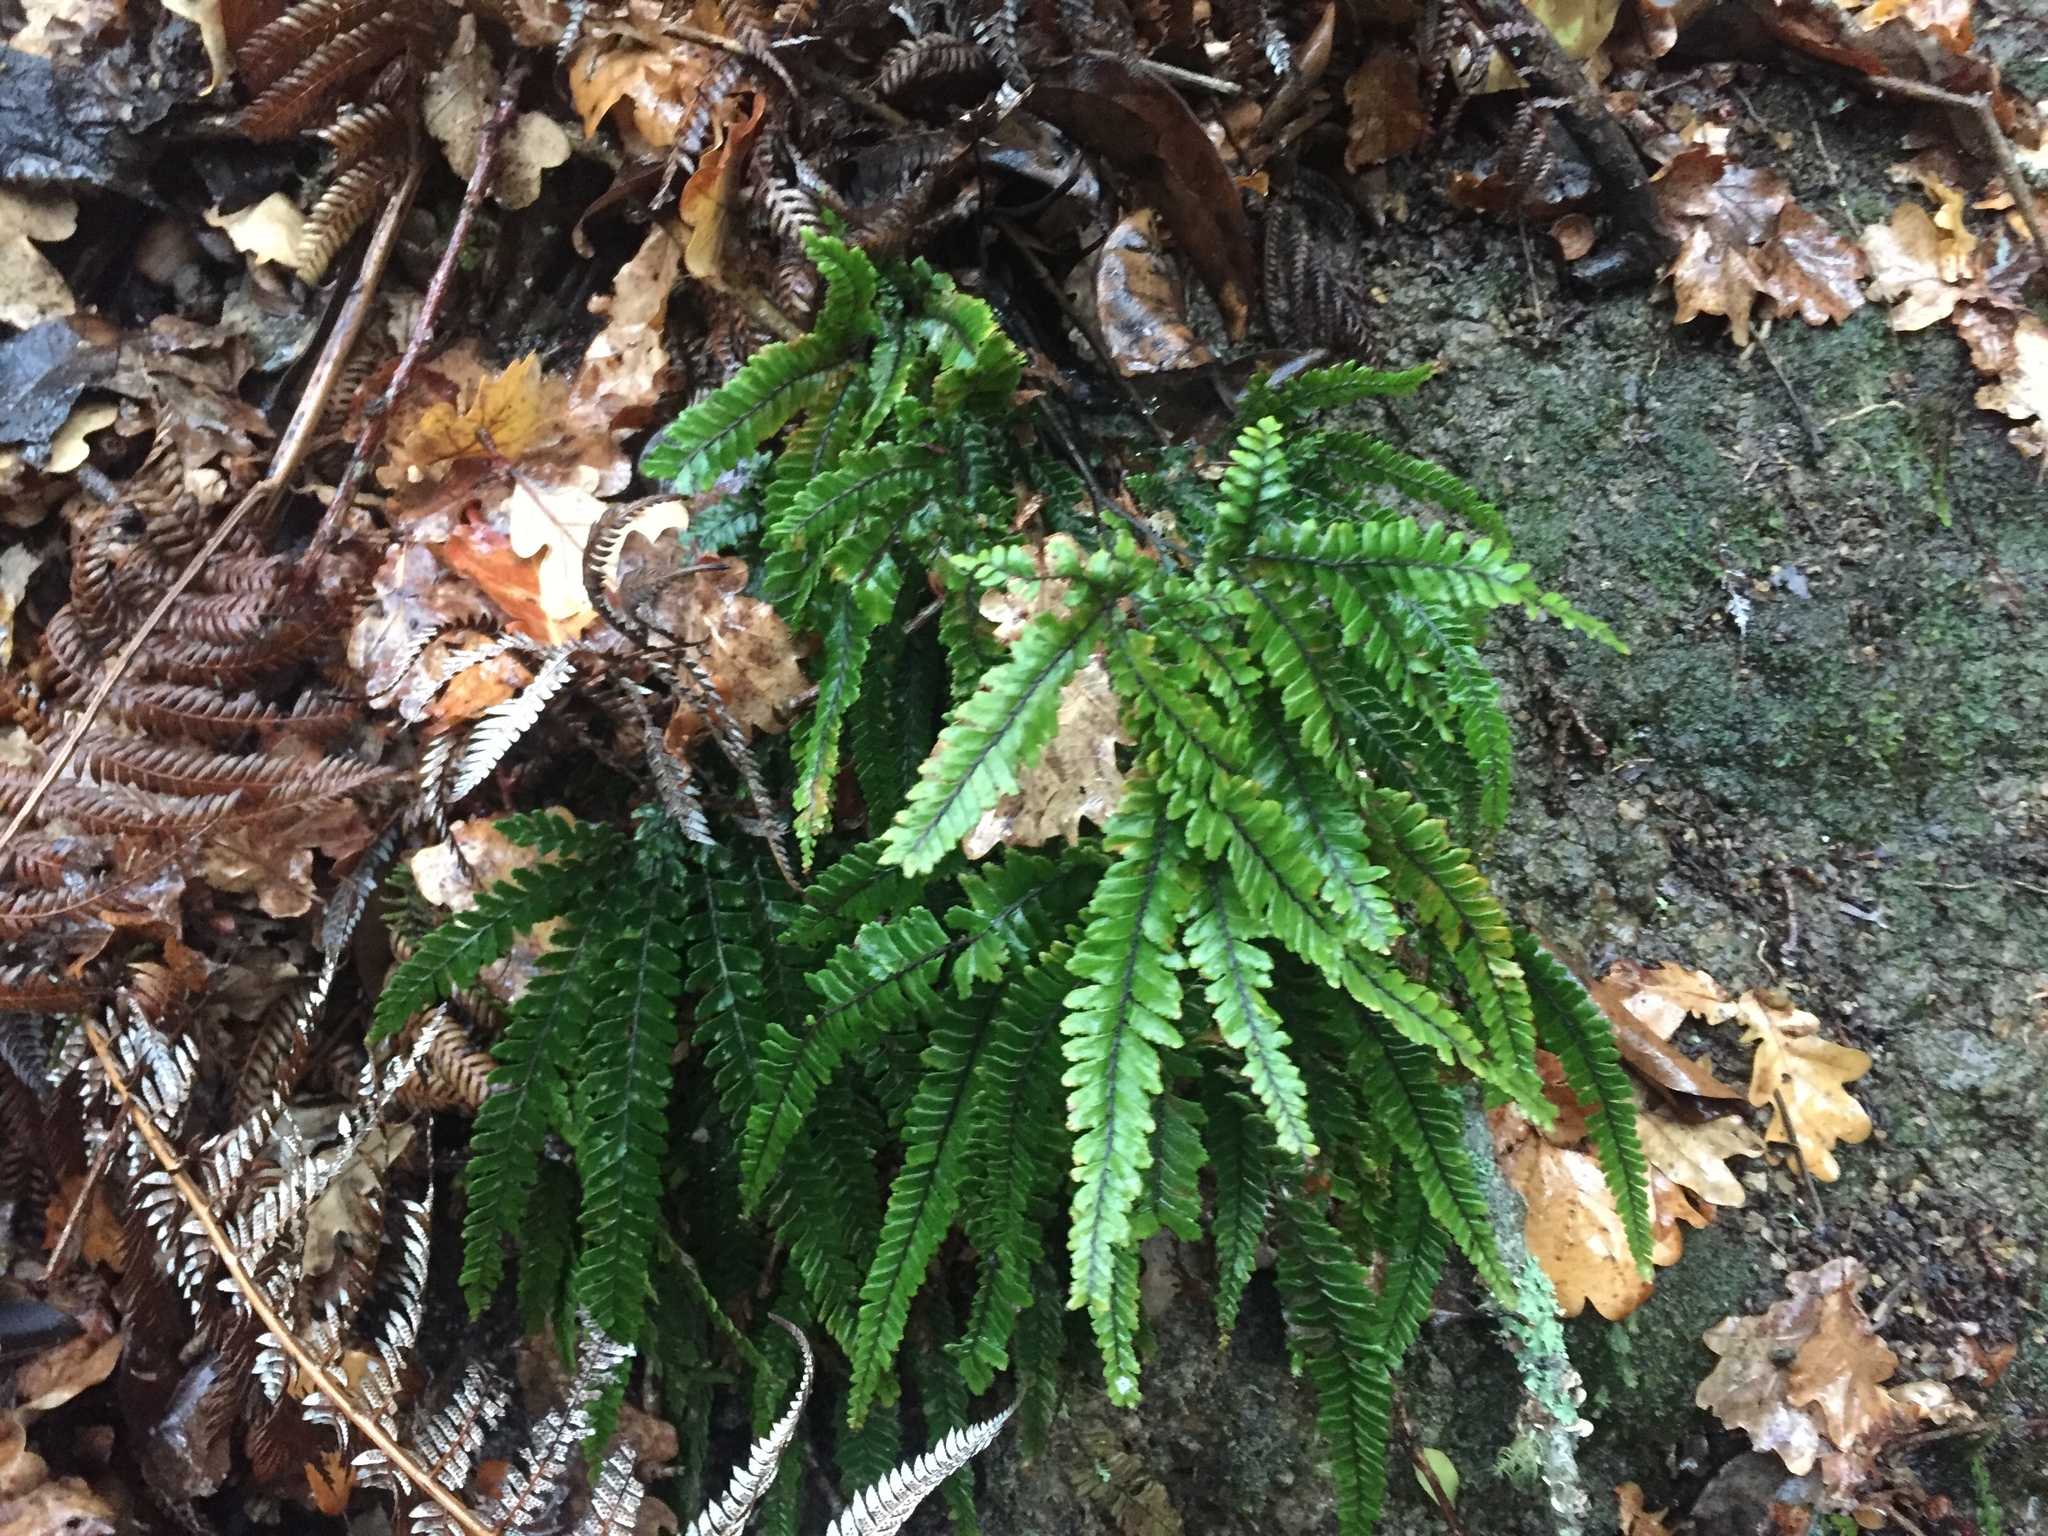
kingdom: Plantae
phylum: Tracheophyta
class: Polypodiopsida
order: Polypodiales
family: Pteridaceae
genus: Adiantum
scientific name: Adiantum hispidulum
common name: Rough maidenhair
